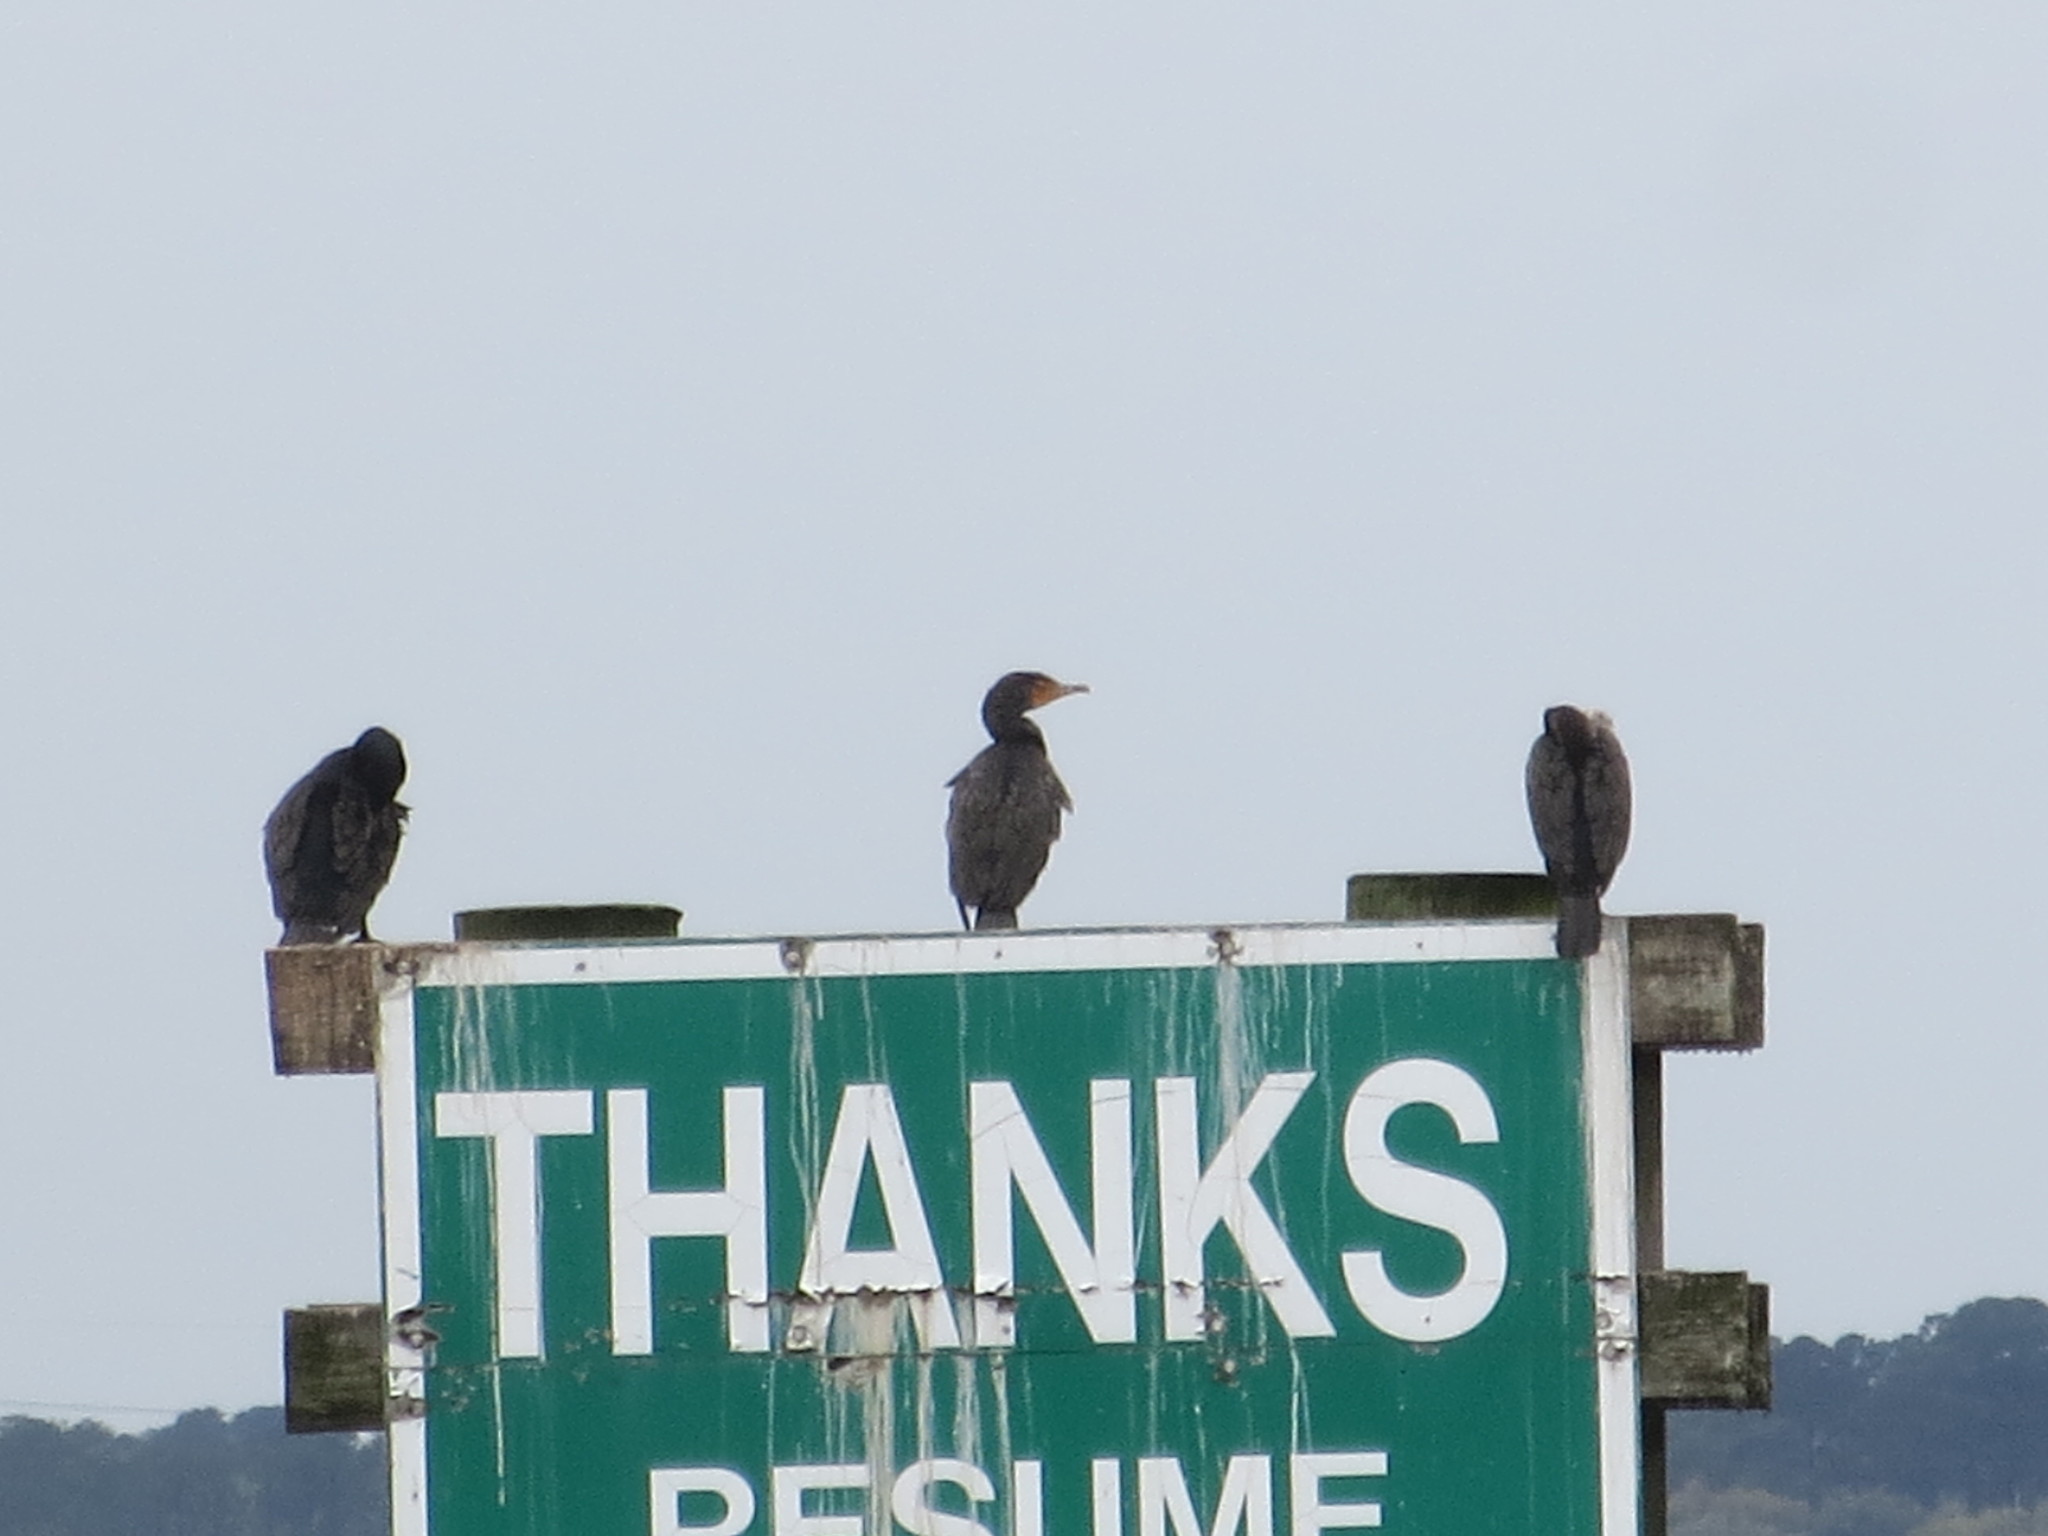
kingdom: Animalia
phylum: Chordata
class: Aves
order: Suliformes
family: Phalacrocoracidae
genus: Phalacrocorax
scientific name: Phalacrocorax auritus
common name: Double-crested cormorant
